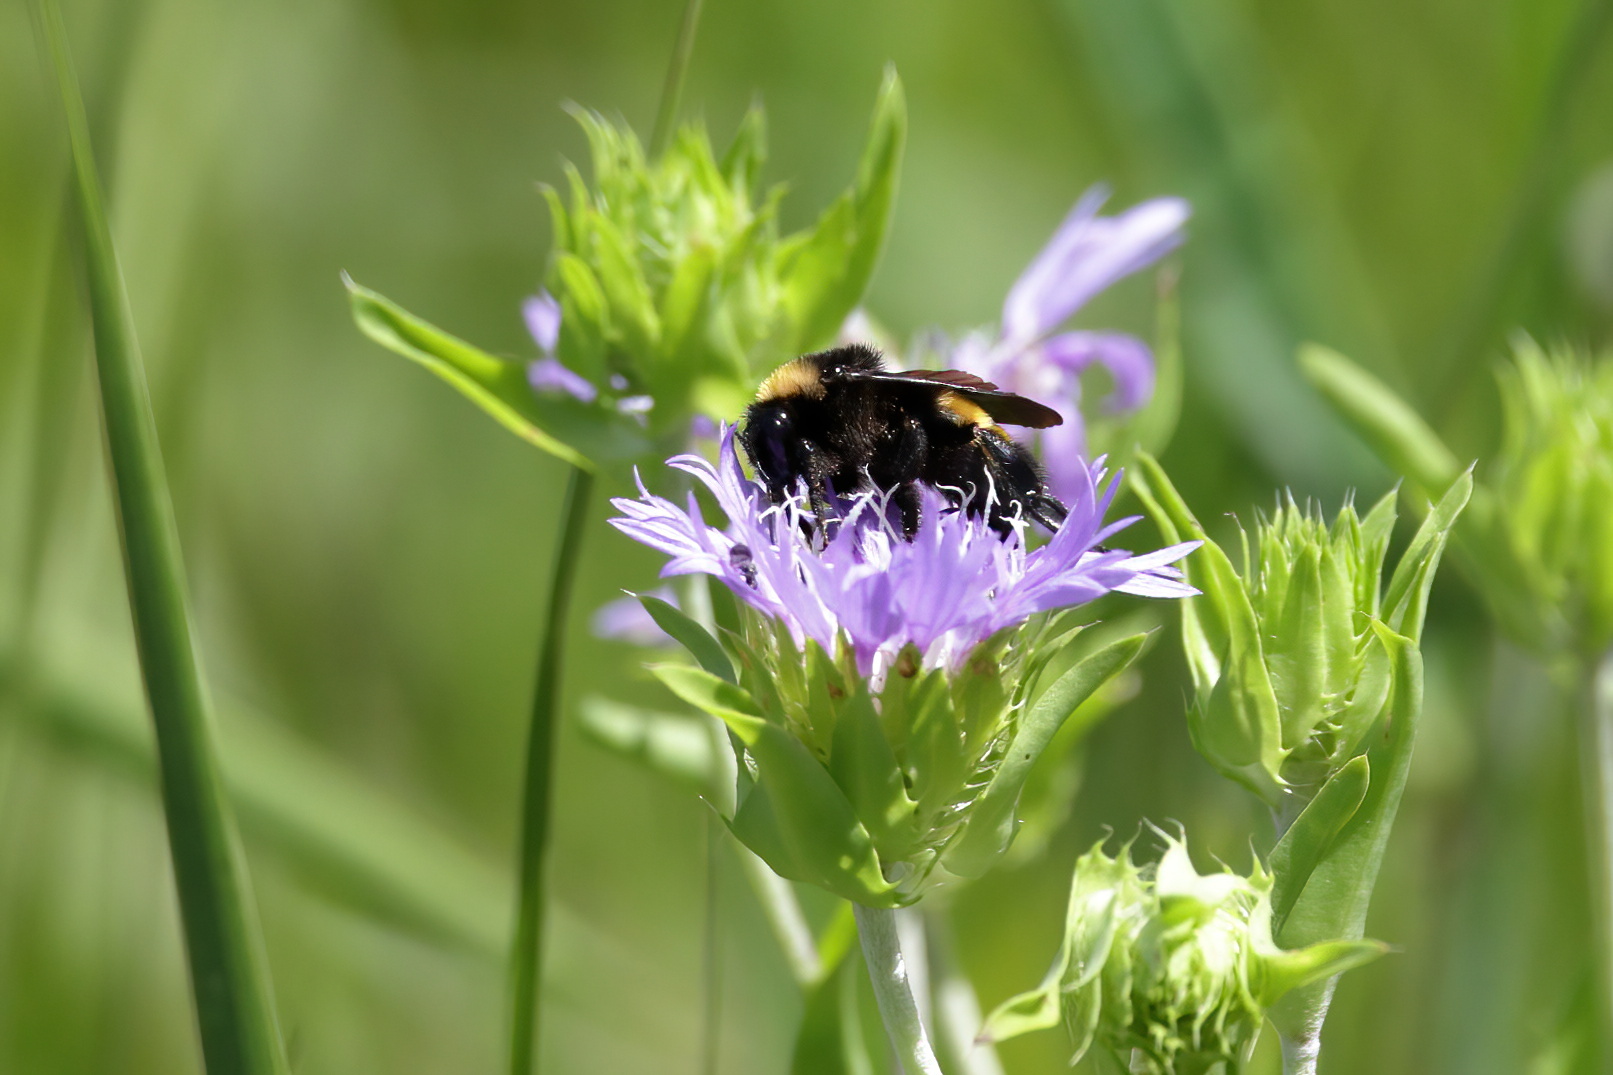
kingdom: Animalia
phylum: Arthropoda
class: Insecta
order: Hymenoptera
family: Apidae
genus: Bombus
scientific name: Bombus pensylvanicus
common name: Bumble bee
